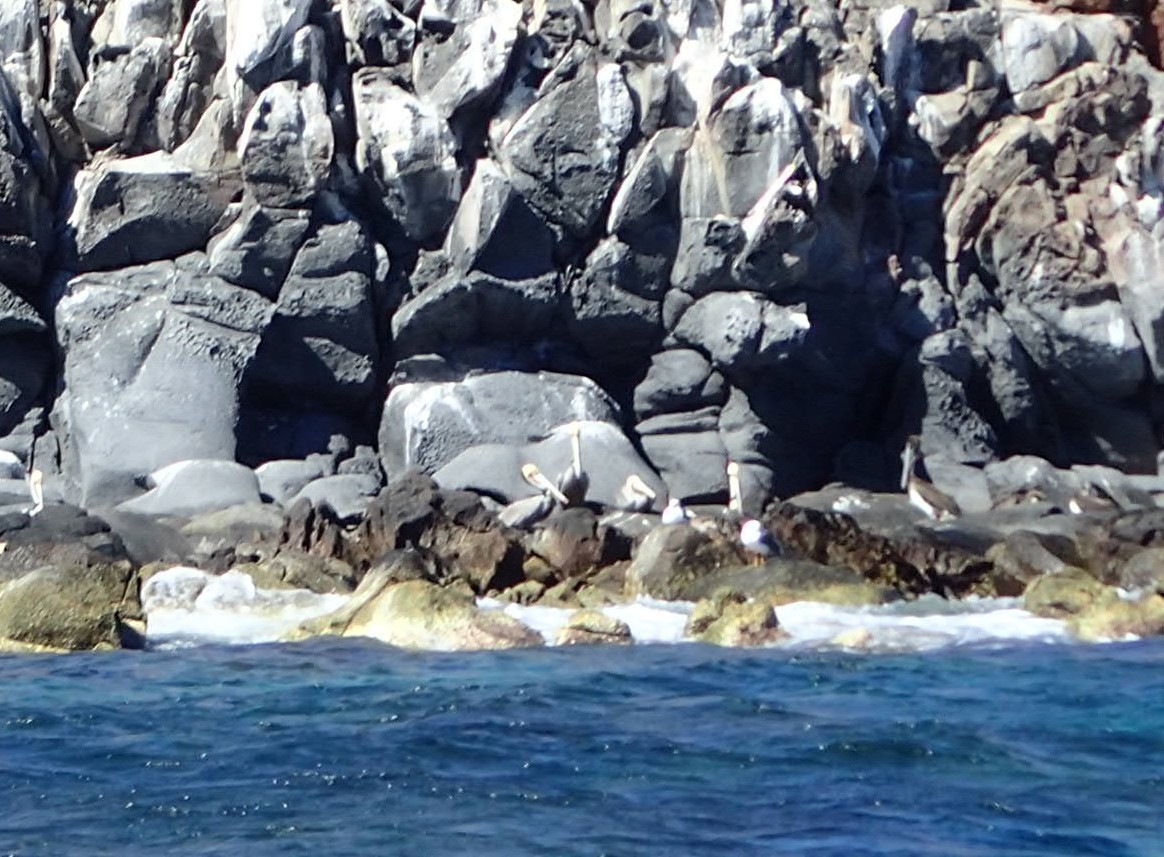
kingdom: Animalia
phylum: Chordata
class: Aves
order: Pelecaniformes
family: Pelecanidae
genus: Pelecanus
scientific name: Pelecanus occidentalis
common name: Brown pelican
